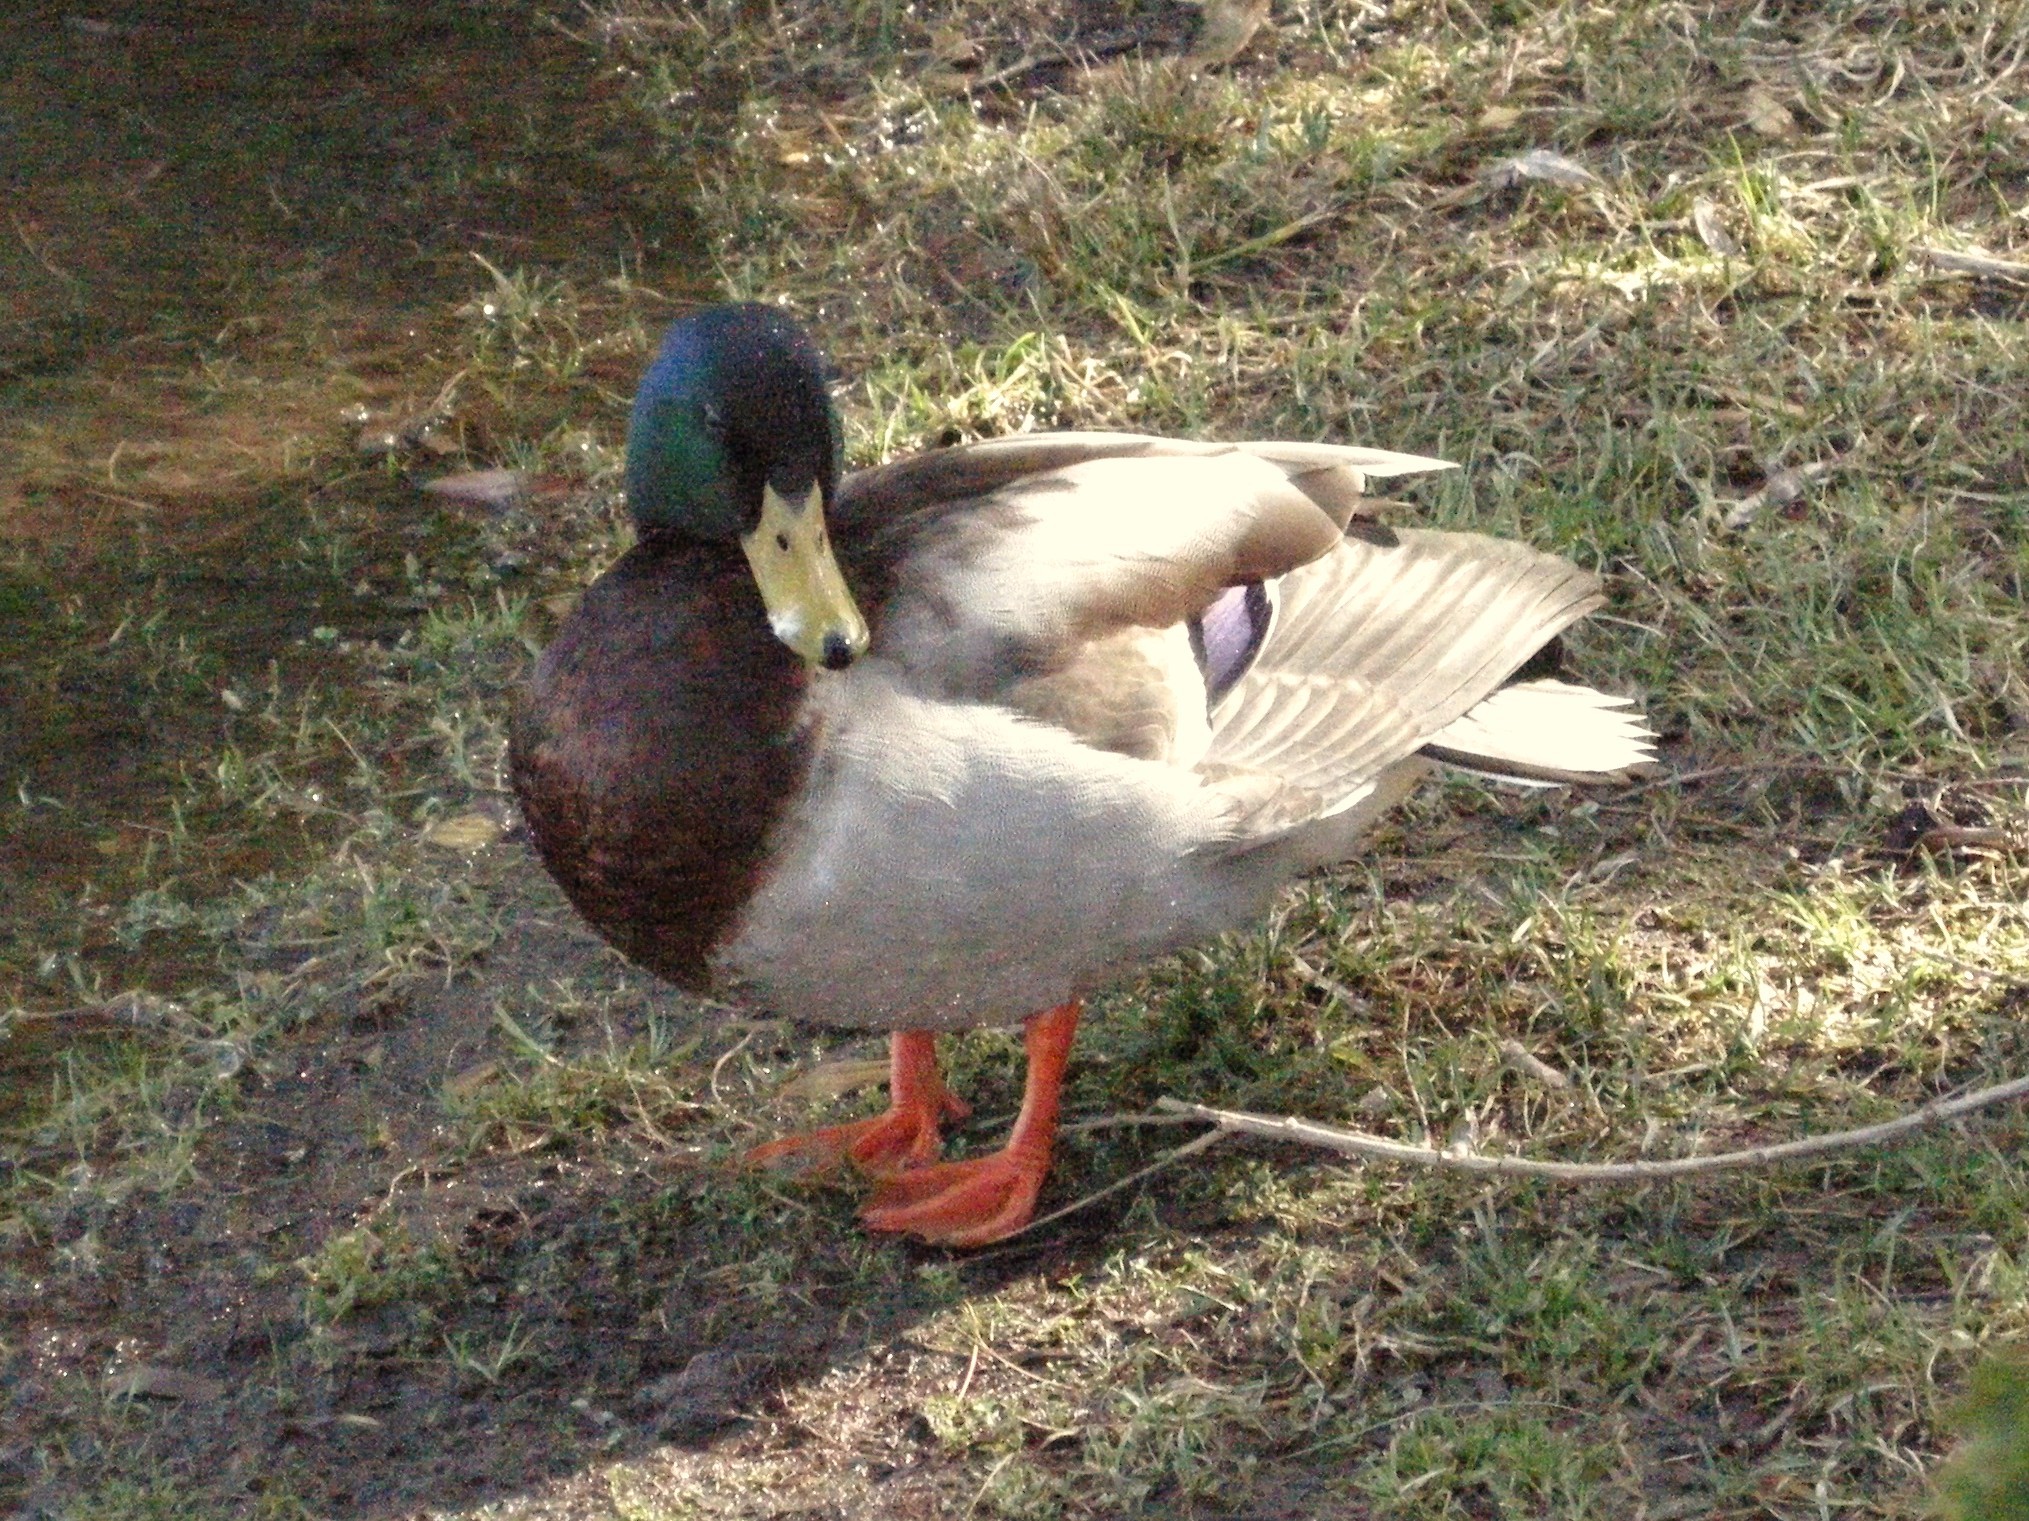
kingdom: Animalia
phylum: Chordata
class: Aves
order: Anseriformes
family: Anatidae
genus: Anas
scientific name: Anas platyrhynchos
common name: Mallard
